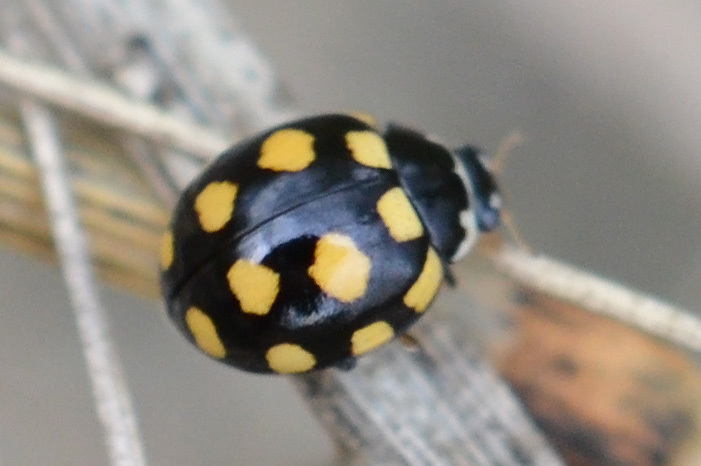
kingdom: Animalia
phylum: Arthropoda
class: Insecta
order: Coleoptera
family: Coccinellidae
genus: Coccinula
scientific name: Coccinula quatuordecimpustulata
